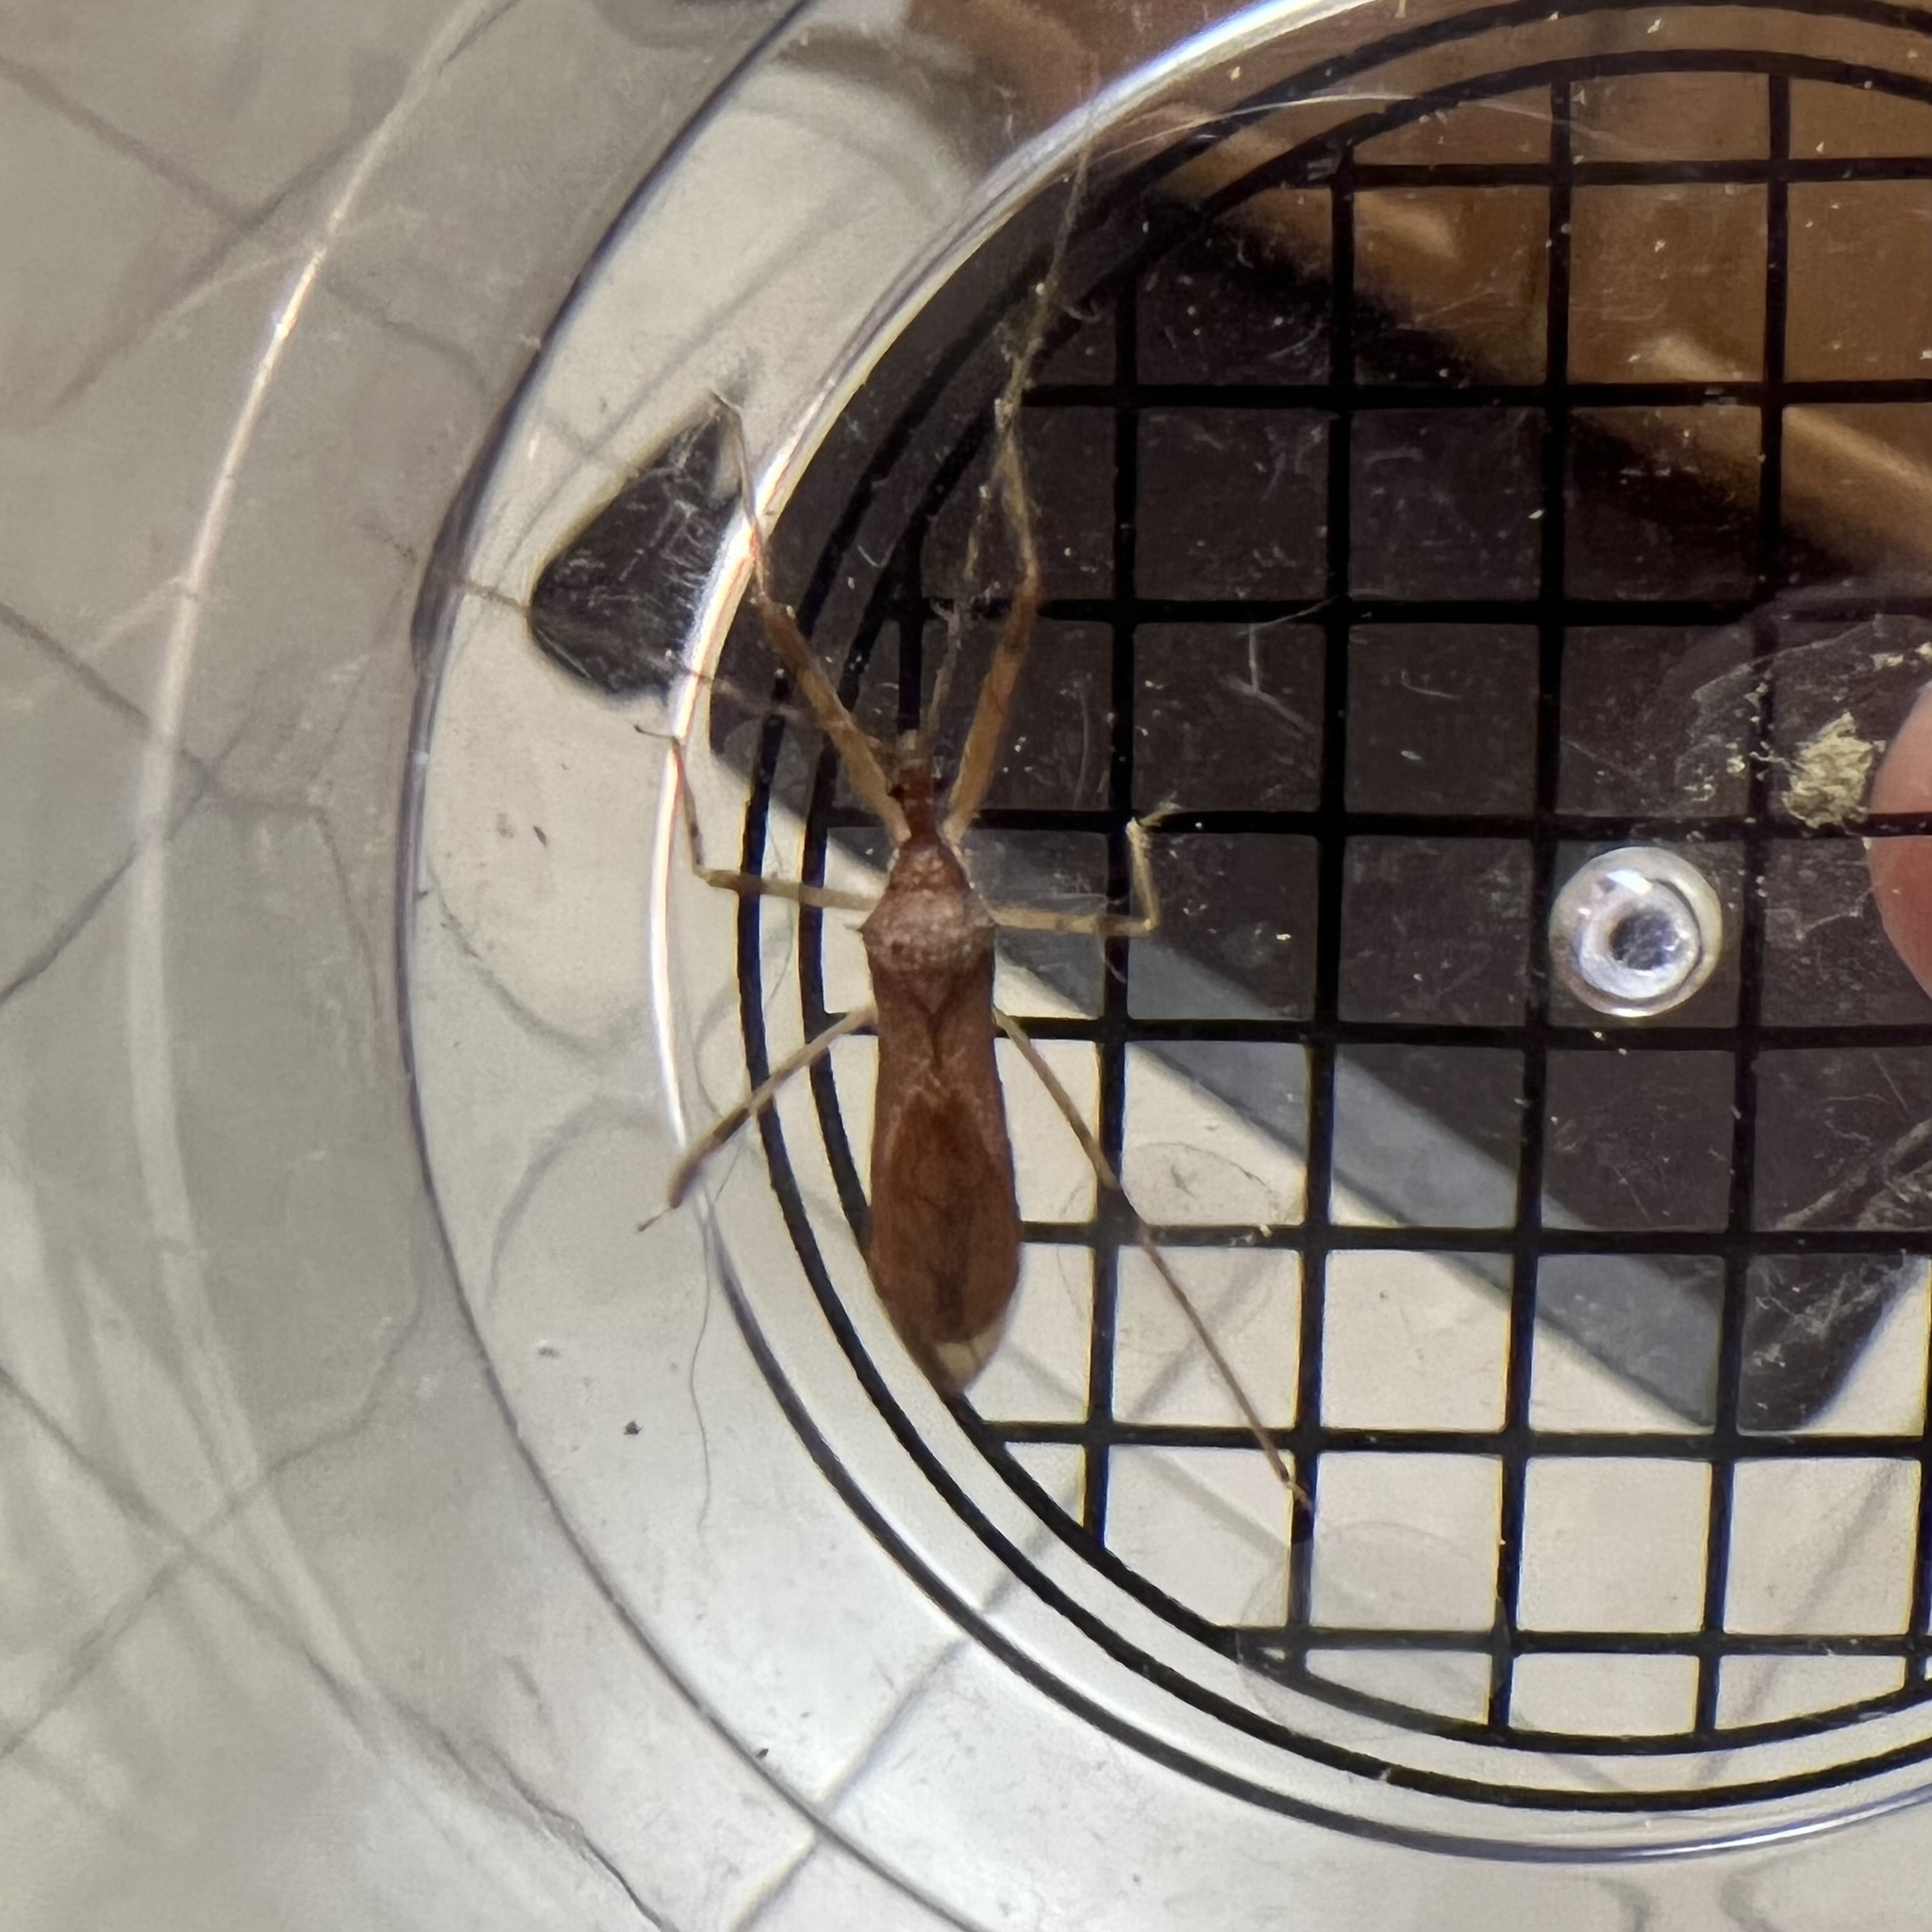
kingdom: Animalia
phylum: Arthropoda
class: Insecta
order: Hemiptera
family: Reduviidae
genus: Rocconota
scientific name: Rocconota annulicornis
